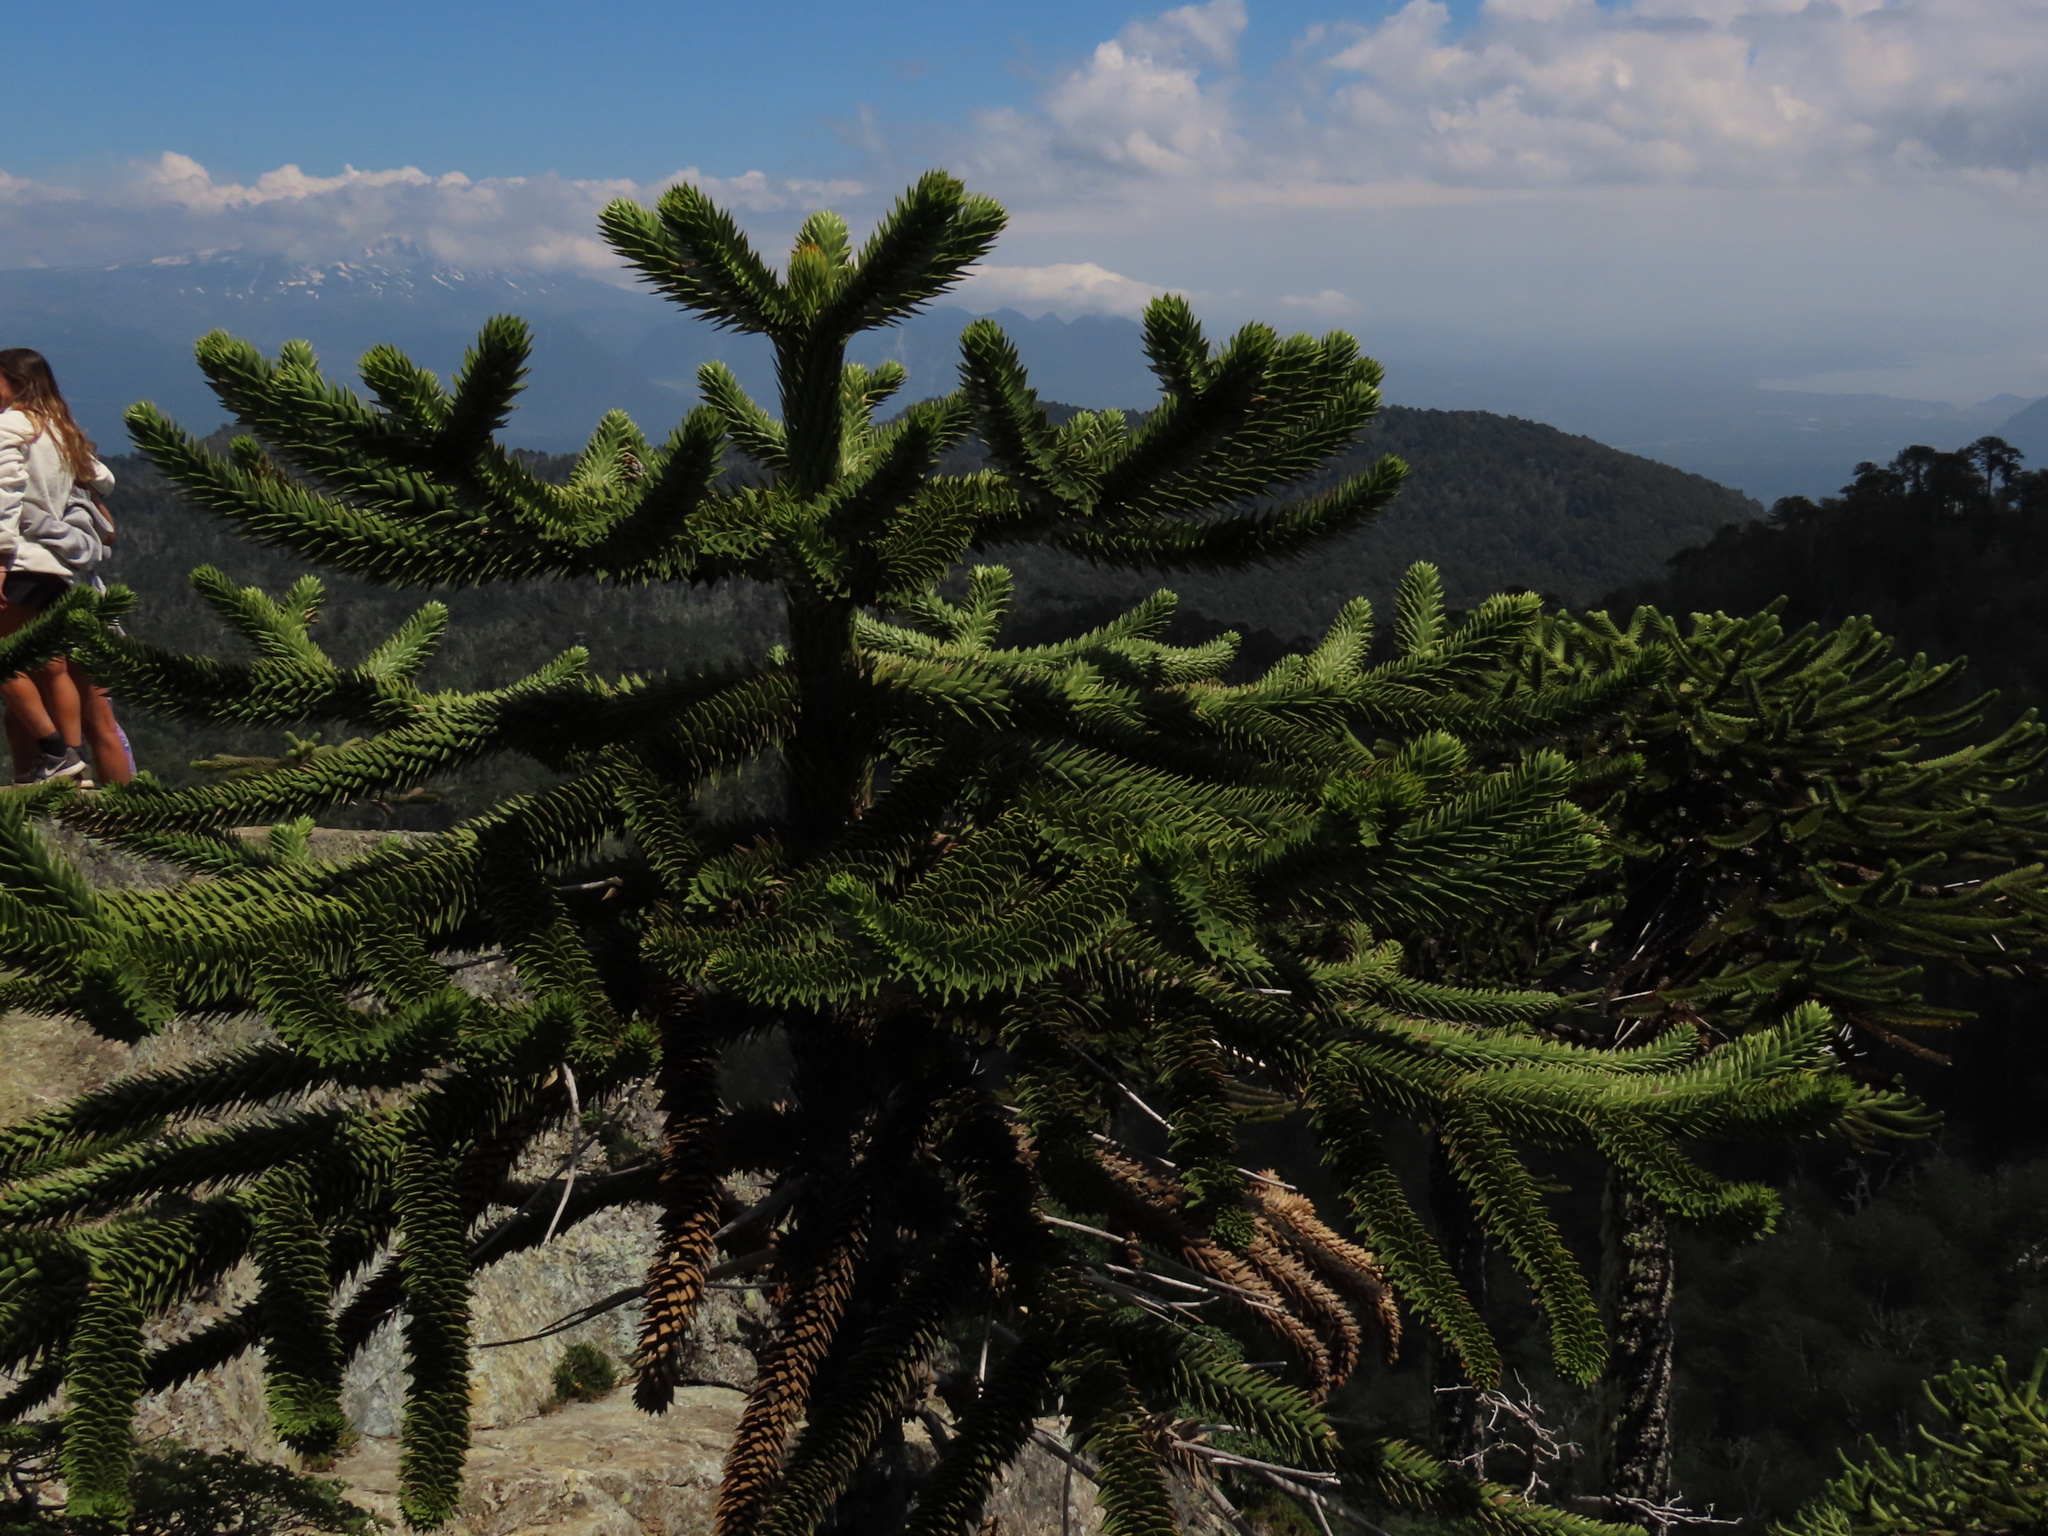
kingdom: Plantae
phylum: Tracheophyta
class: Pinopsida
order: Pinales
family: Araucariaceae
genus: Araucaria
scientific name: Araucaria araucana
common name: Monkey-puzzle
